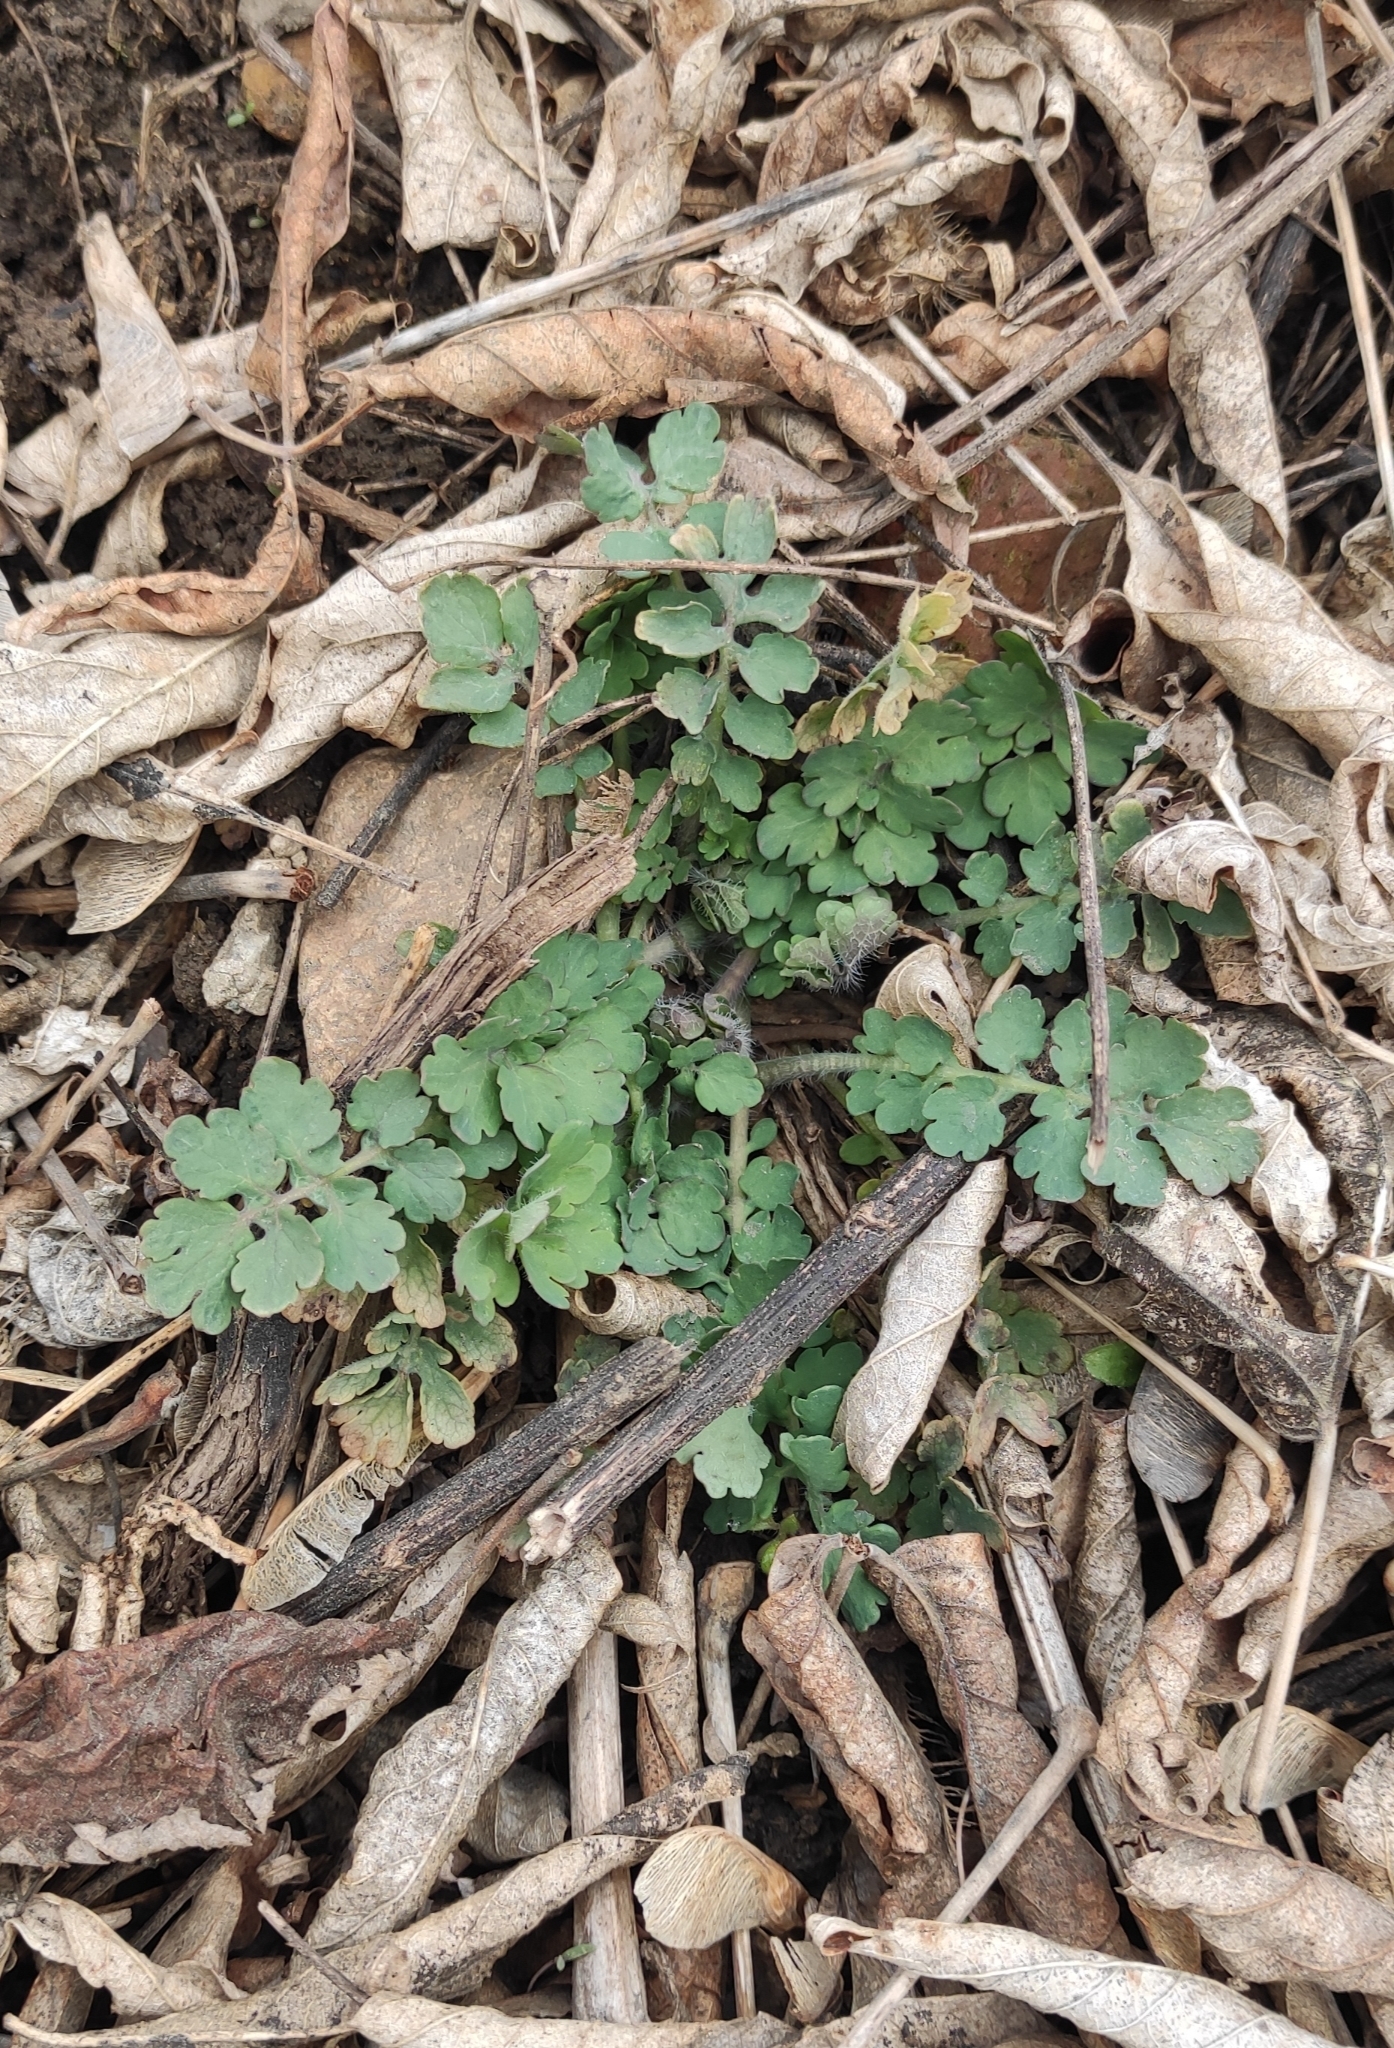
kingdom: Plantae
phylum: Tracheophyta
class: Magnoliopsida
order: Ranunculales
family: Papaveraceae
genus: Chelidonium
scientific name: Chelidonium majus
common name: Greater celandine
